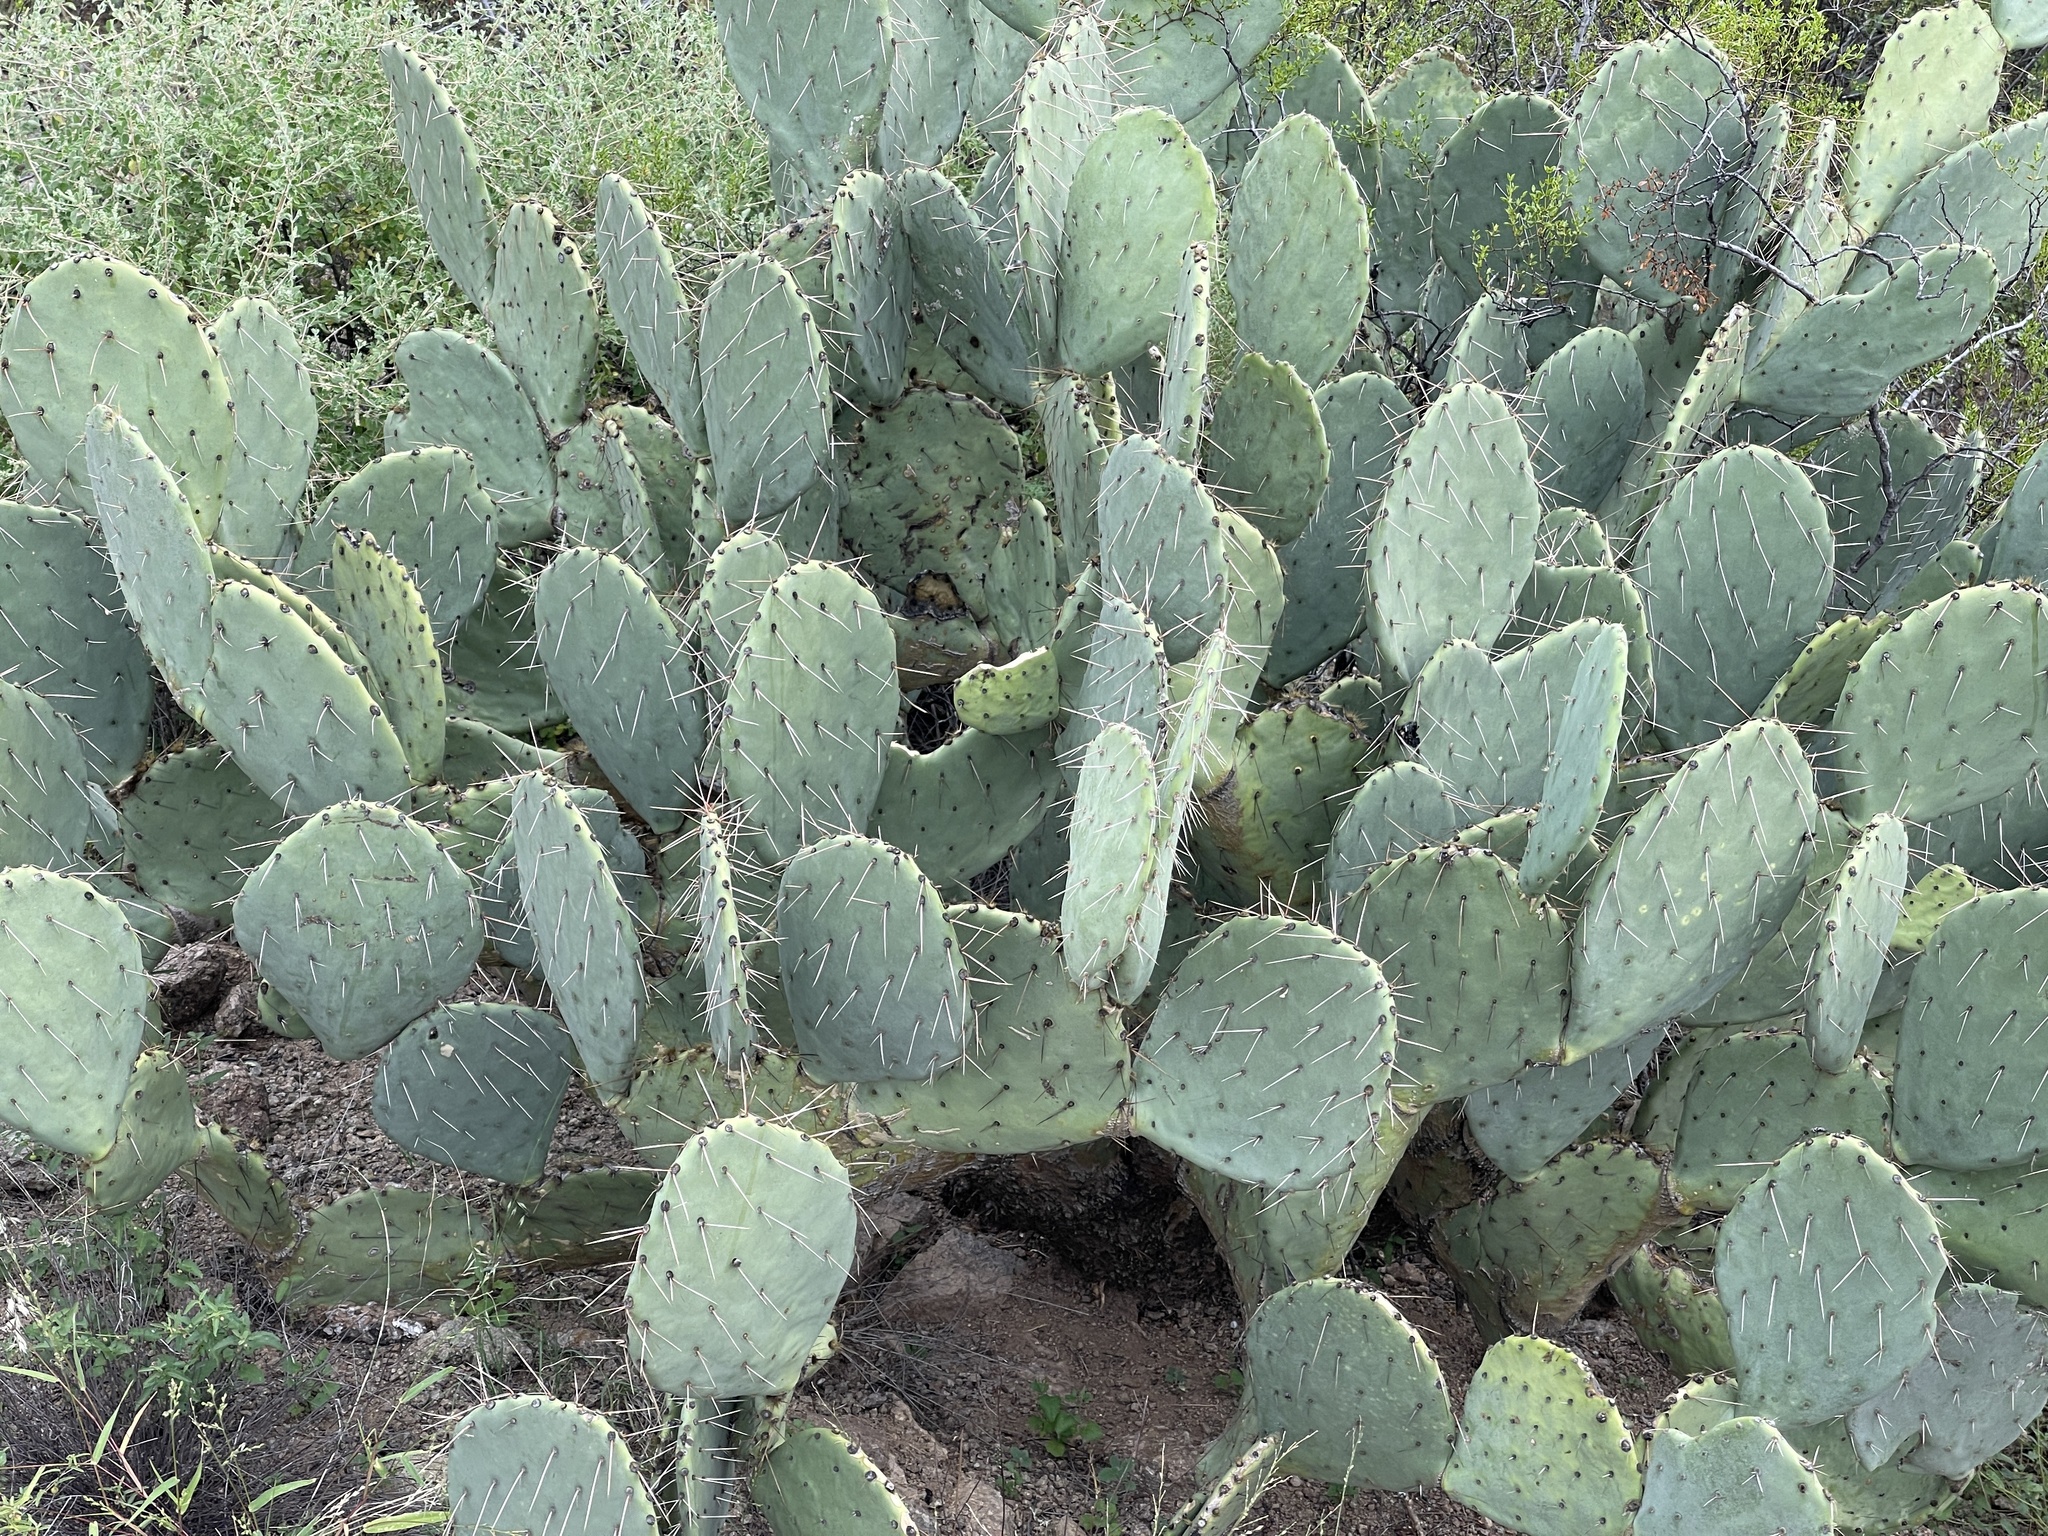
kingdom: Plantae
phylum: Tracheophyta
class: Magnoliopsida
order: Caryophyllales
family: Cactaceae
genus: Opuntia
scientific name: Opuntia engelmannii
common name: Cactus-apple
